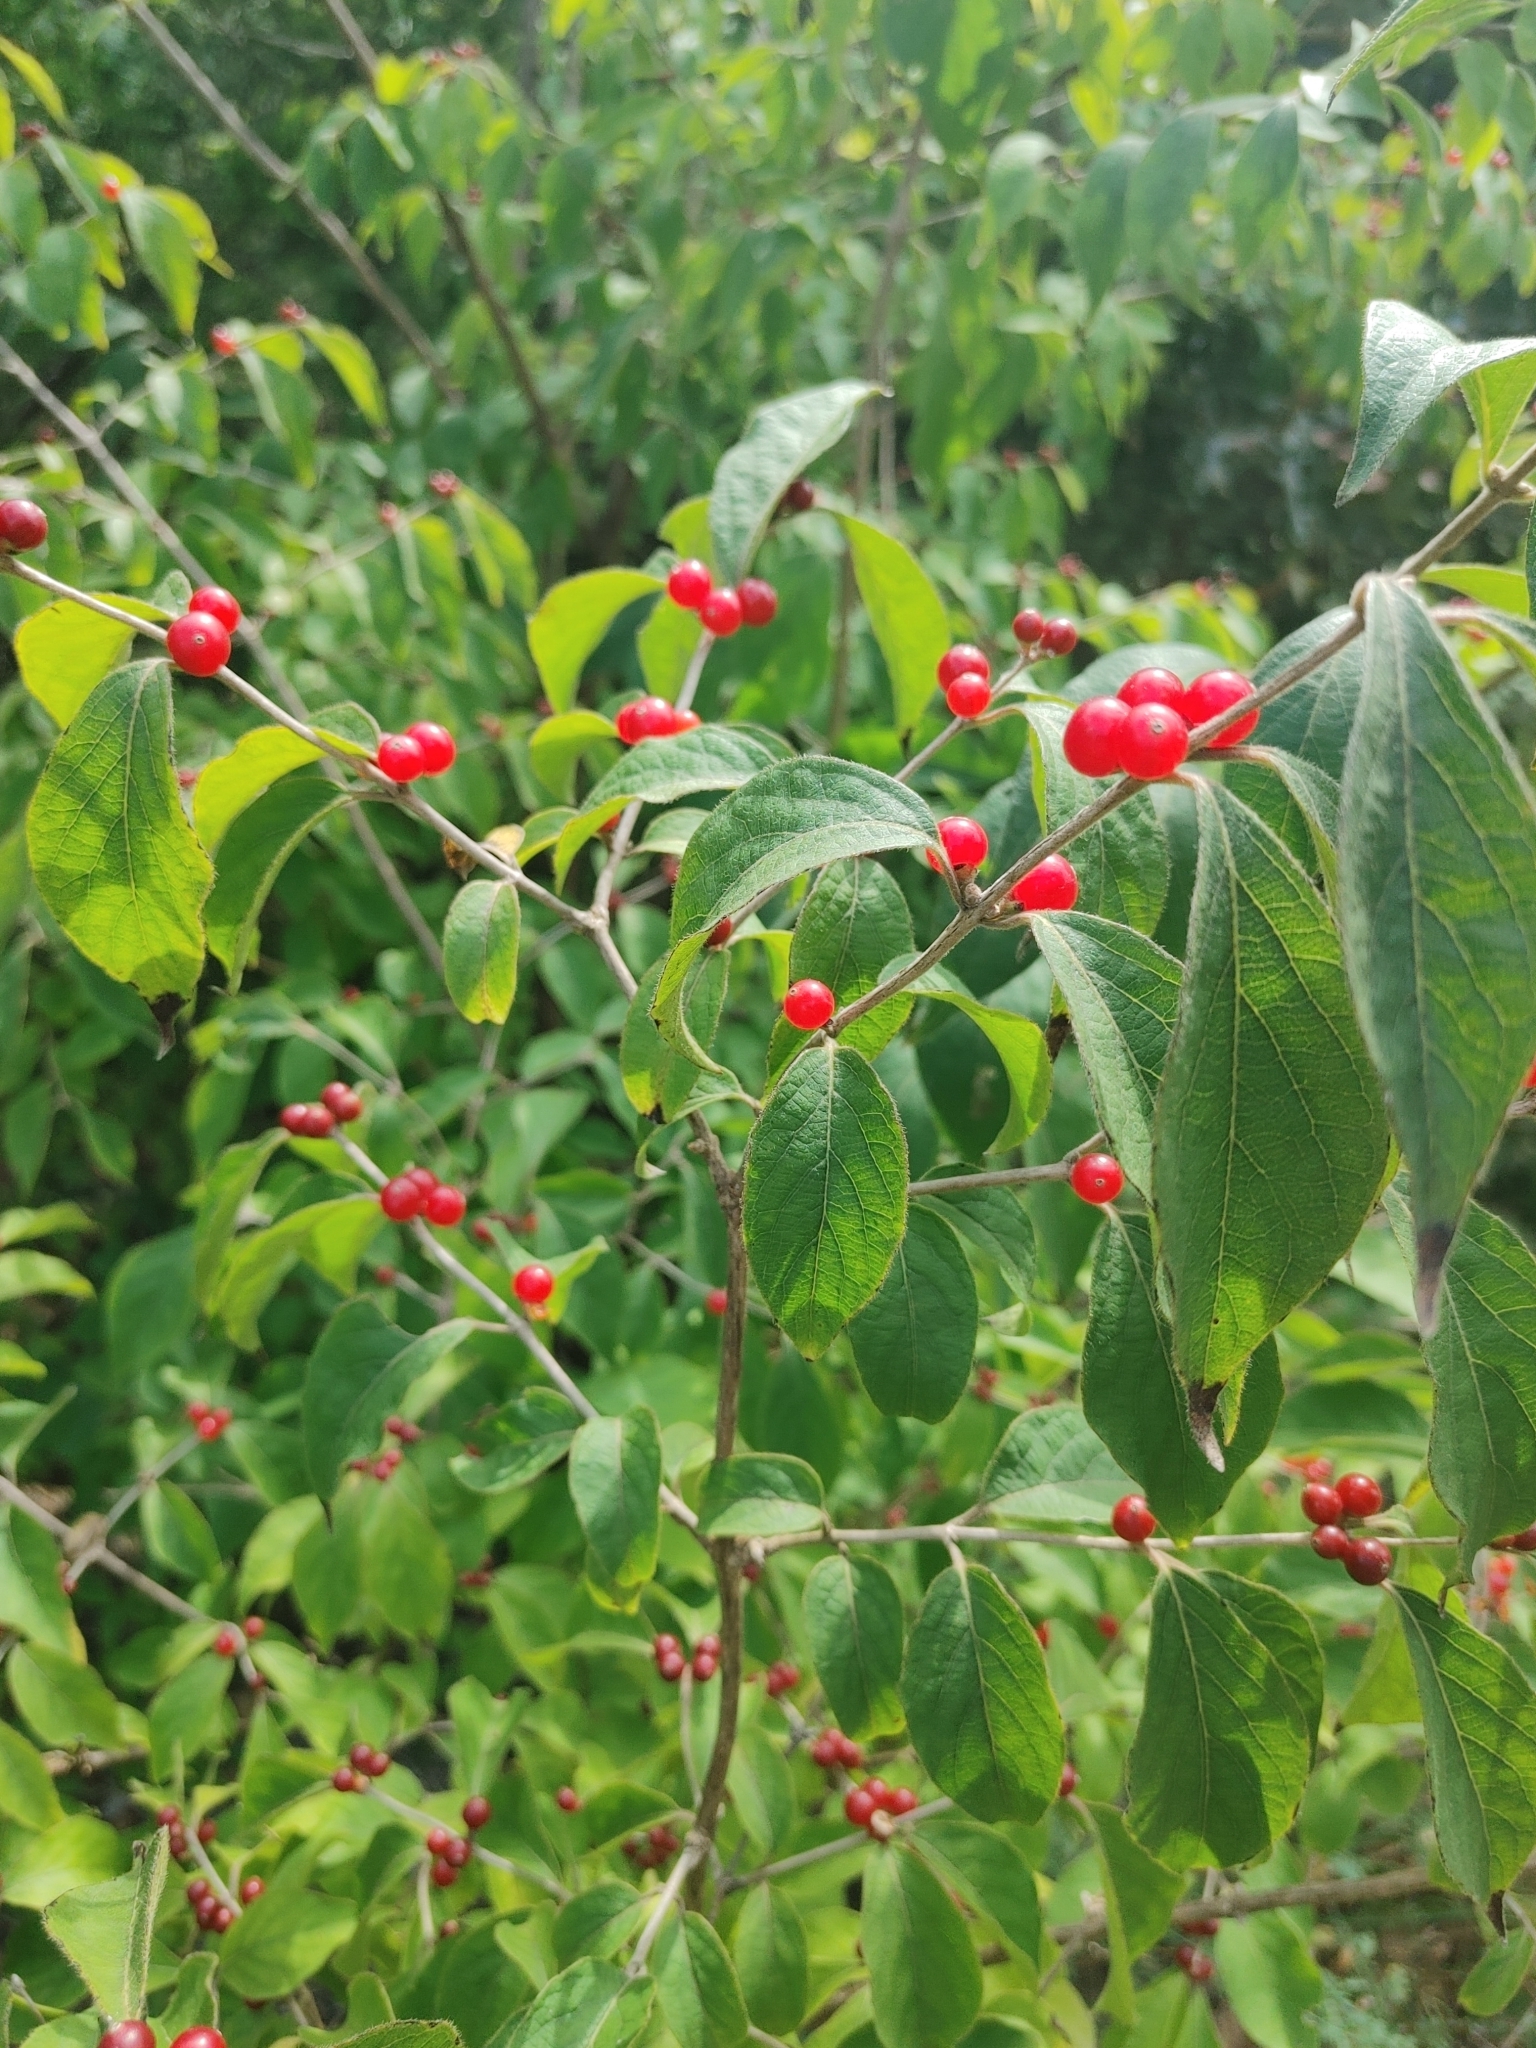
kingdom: Plantae
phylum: Tracheophyta
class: Magnoliopsida
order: Dipsacales
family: Caprifoliaceae
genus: Lonicera
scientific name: Lonicera maackii
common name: Amur honeysuckle
